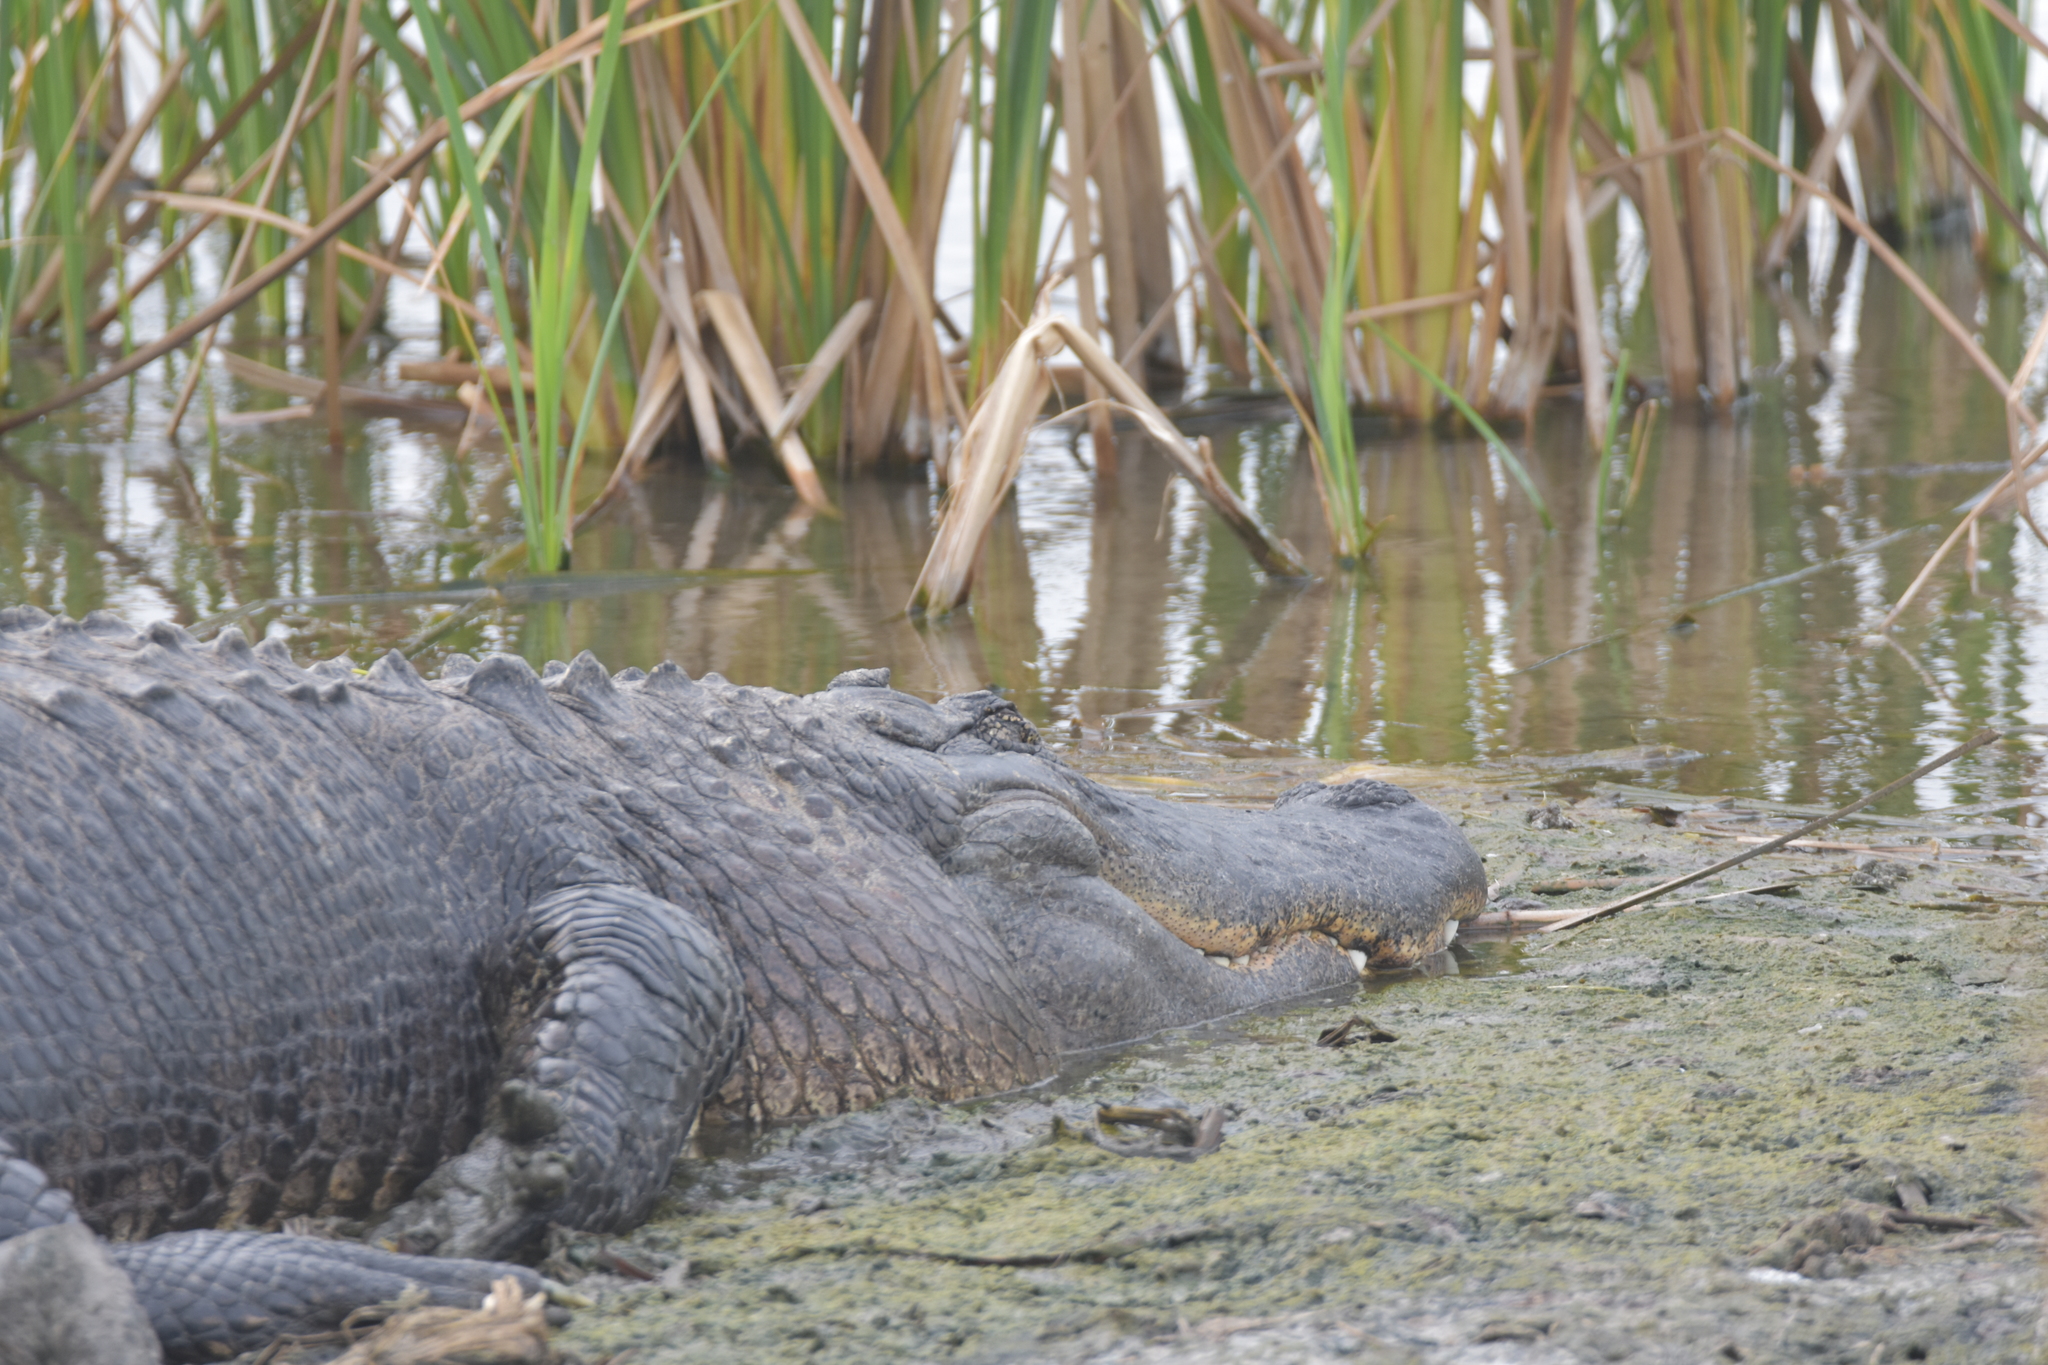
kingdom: Animalia
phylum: Chordata
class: Crocodylia
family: Alligatoridae
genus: Alligator
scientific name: Alligator mississippiensis
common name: American alligator
